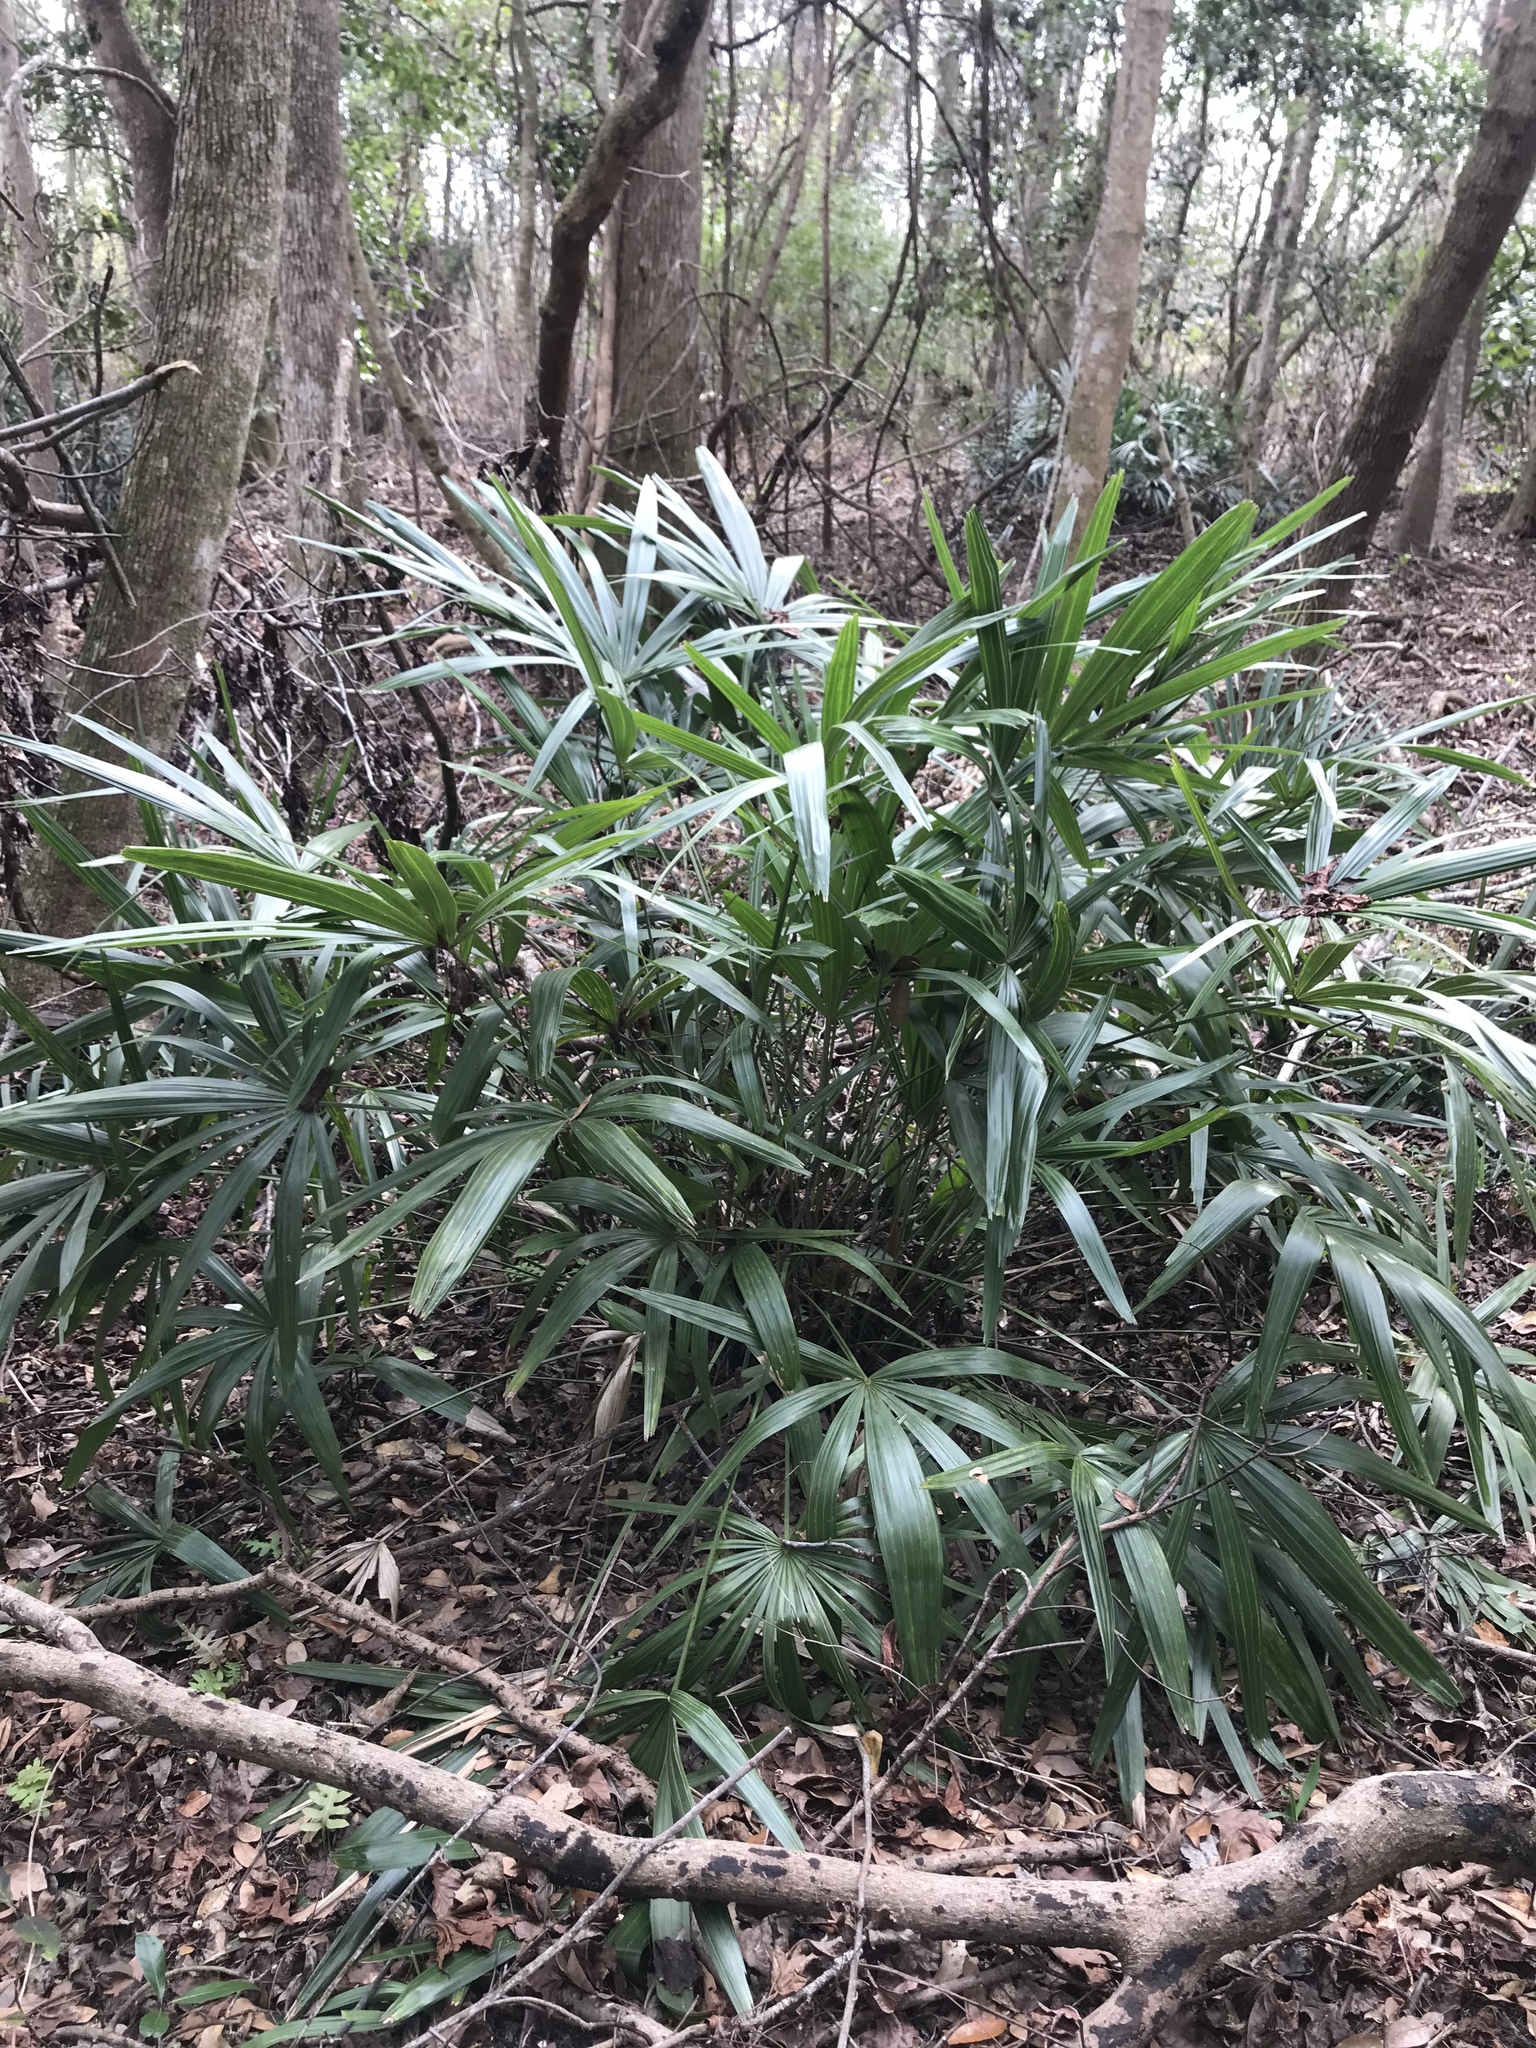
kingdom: Plantae
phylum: Tracheophyta
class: Liliopsida
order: Arecales
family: Arecaceae
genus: Rhapidophyllum
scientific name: Rhapidophyllum hystrix
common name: Porcupine palm
